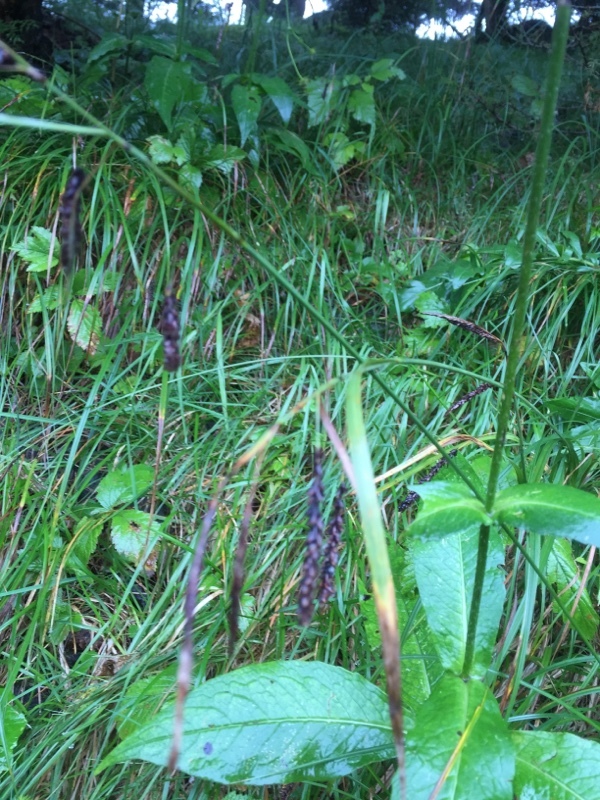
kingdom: Plantae
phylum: Tracheophyta
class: Liliopsida
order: Poales
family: Cyperaceae
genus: Carex
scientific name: Carex sylvatica
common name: Wood-sedge
